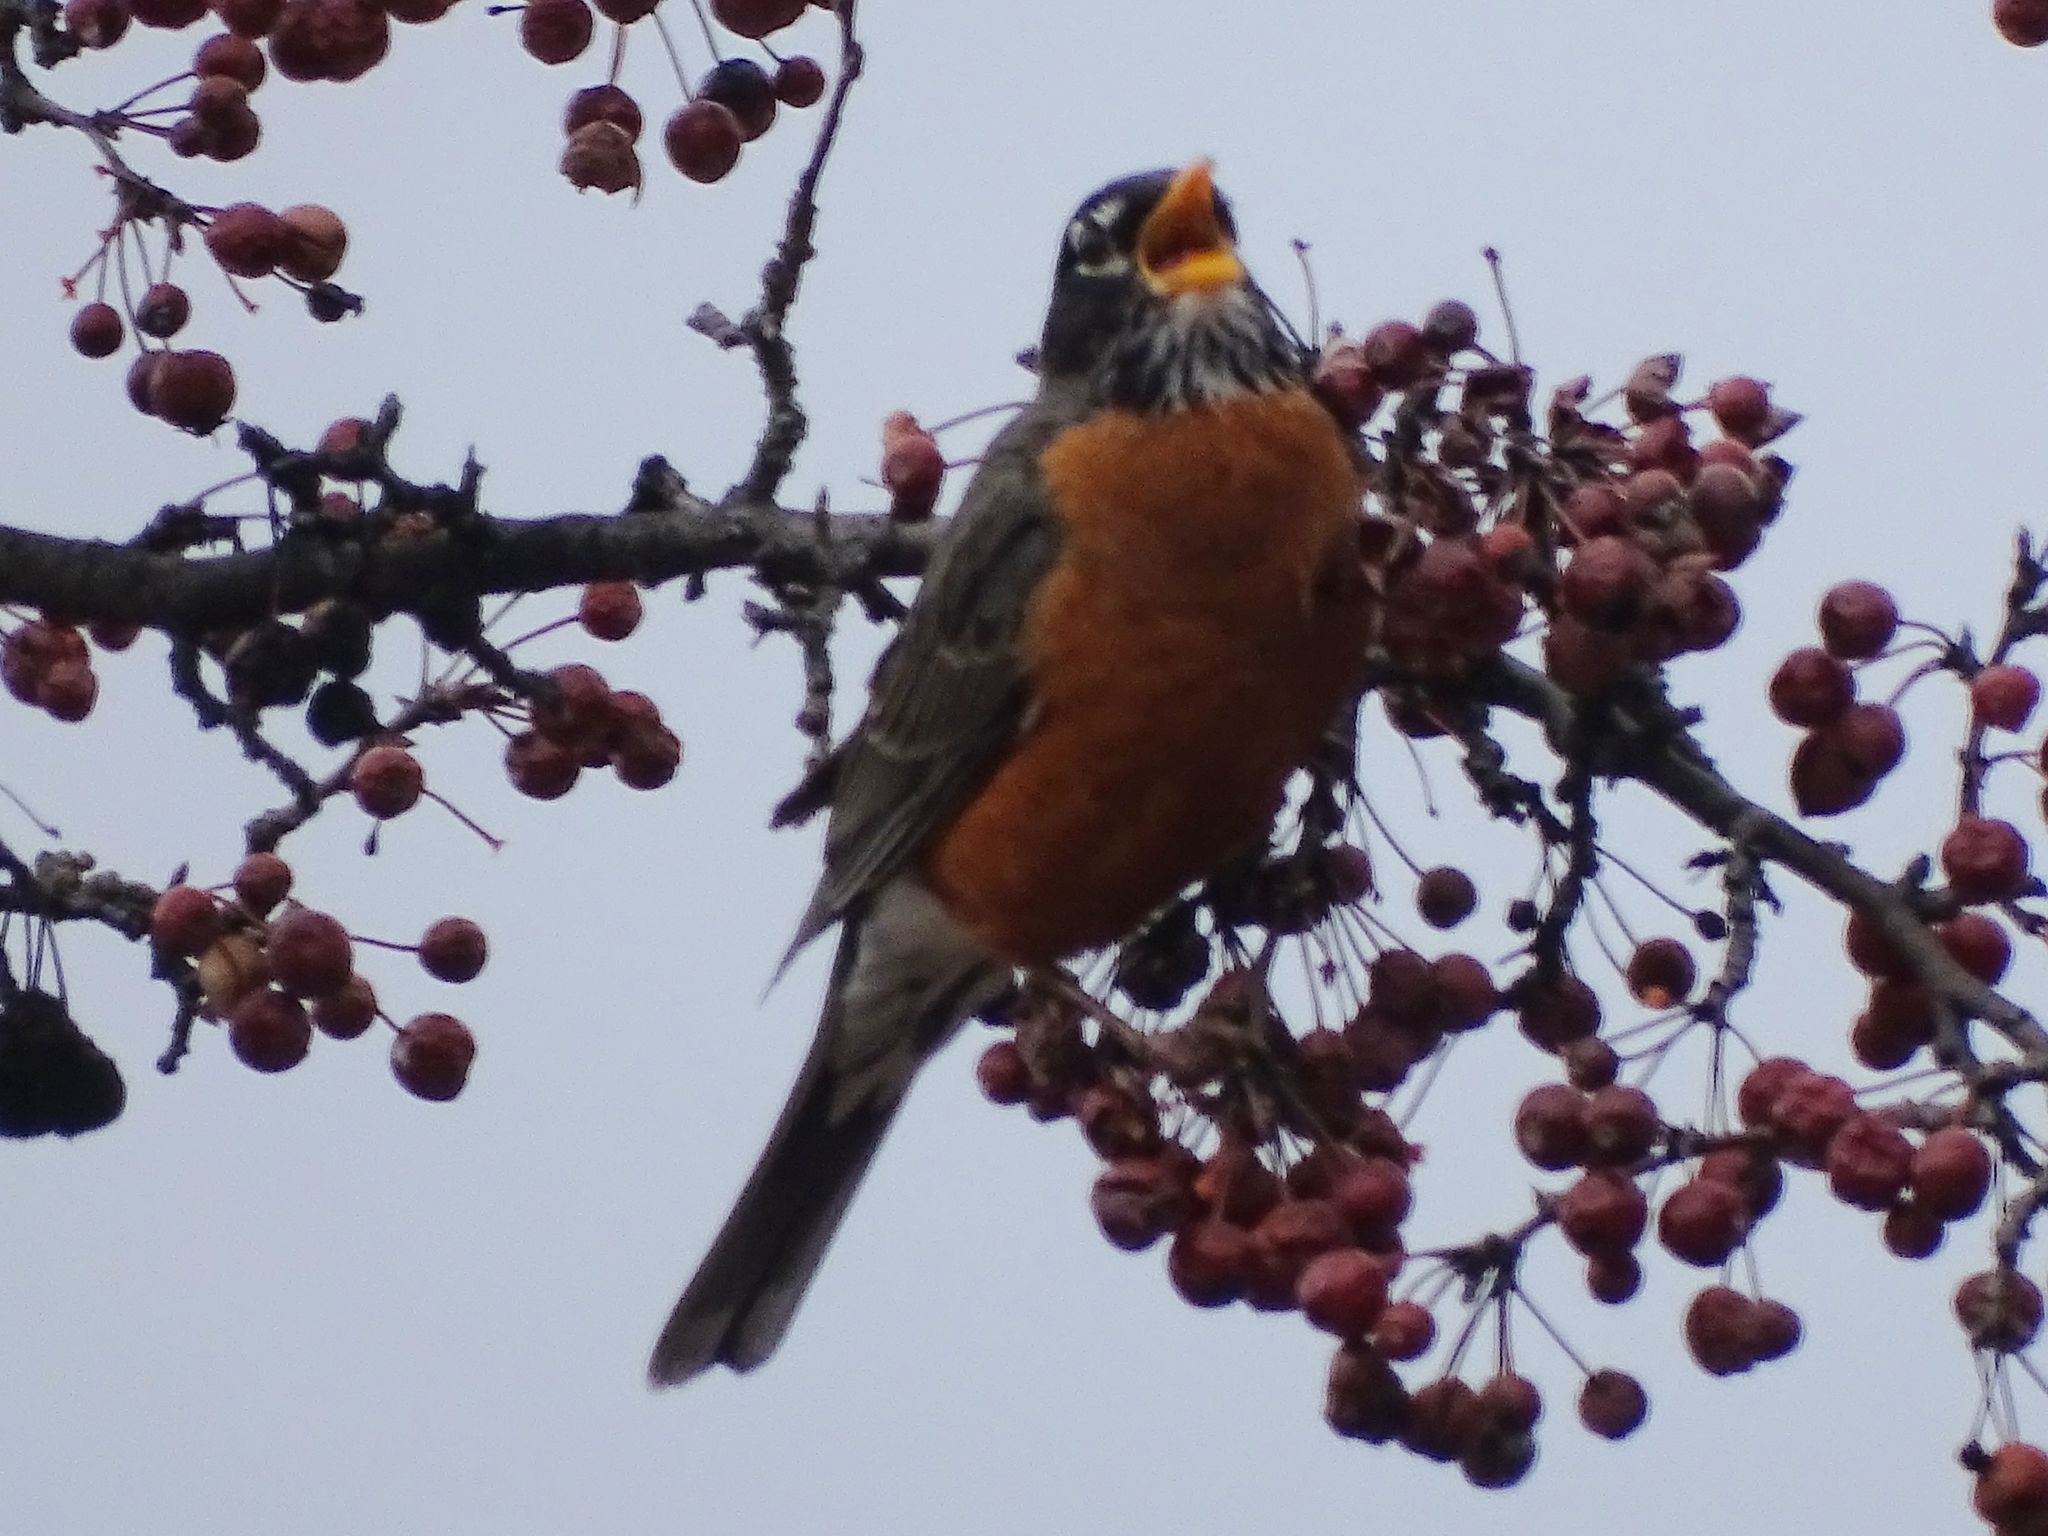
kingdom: Animalia
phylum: Chordata
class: Aves
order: Passeriformes
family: Turdidae
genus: Turdus
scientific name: Turdus migratorius
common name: American robin
